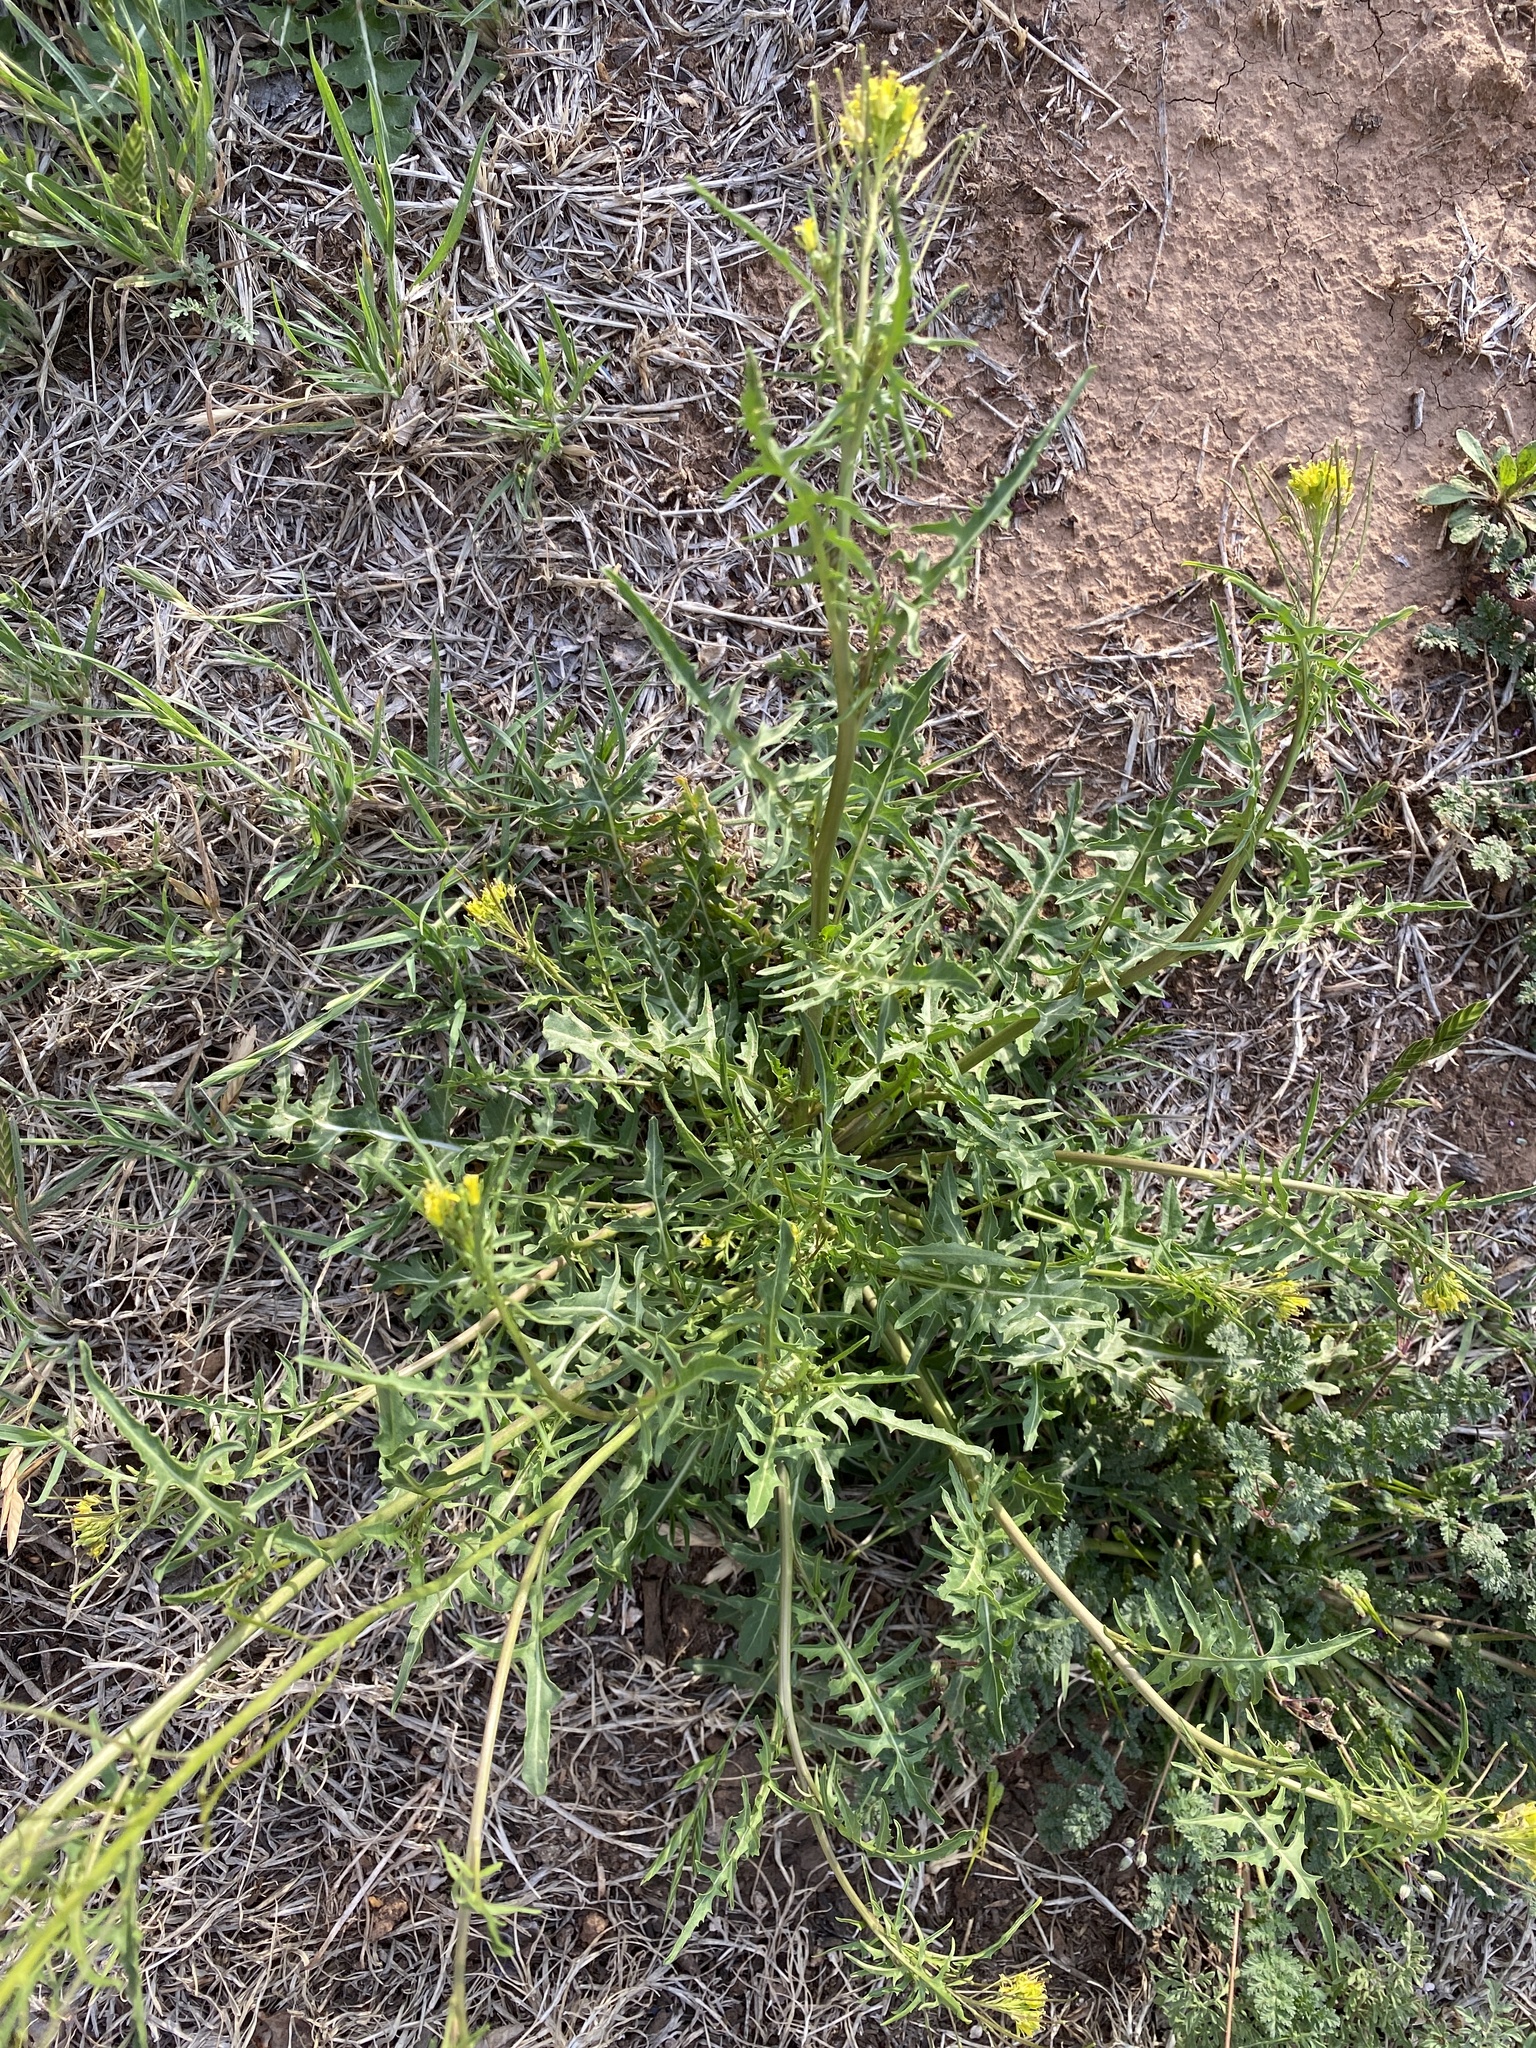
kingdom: Plantae
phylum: Tracheophyta
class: Magnoliopsida
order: Brassicales
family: Brassicaceae
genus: Sisymbrium
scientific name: Sisymbrium irio
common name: London rocket
